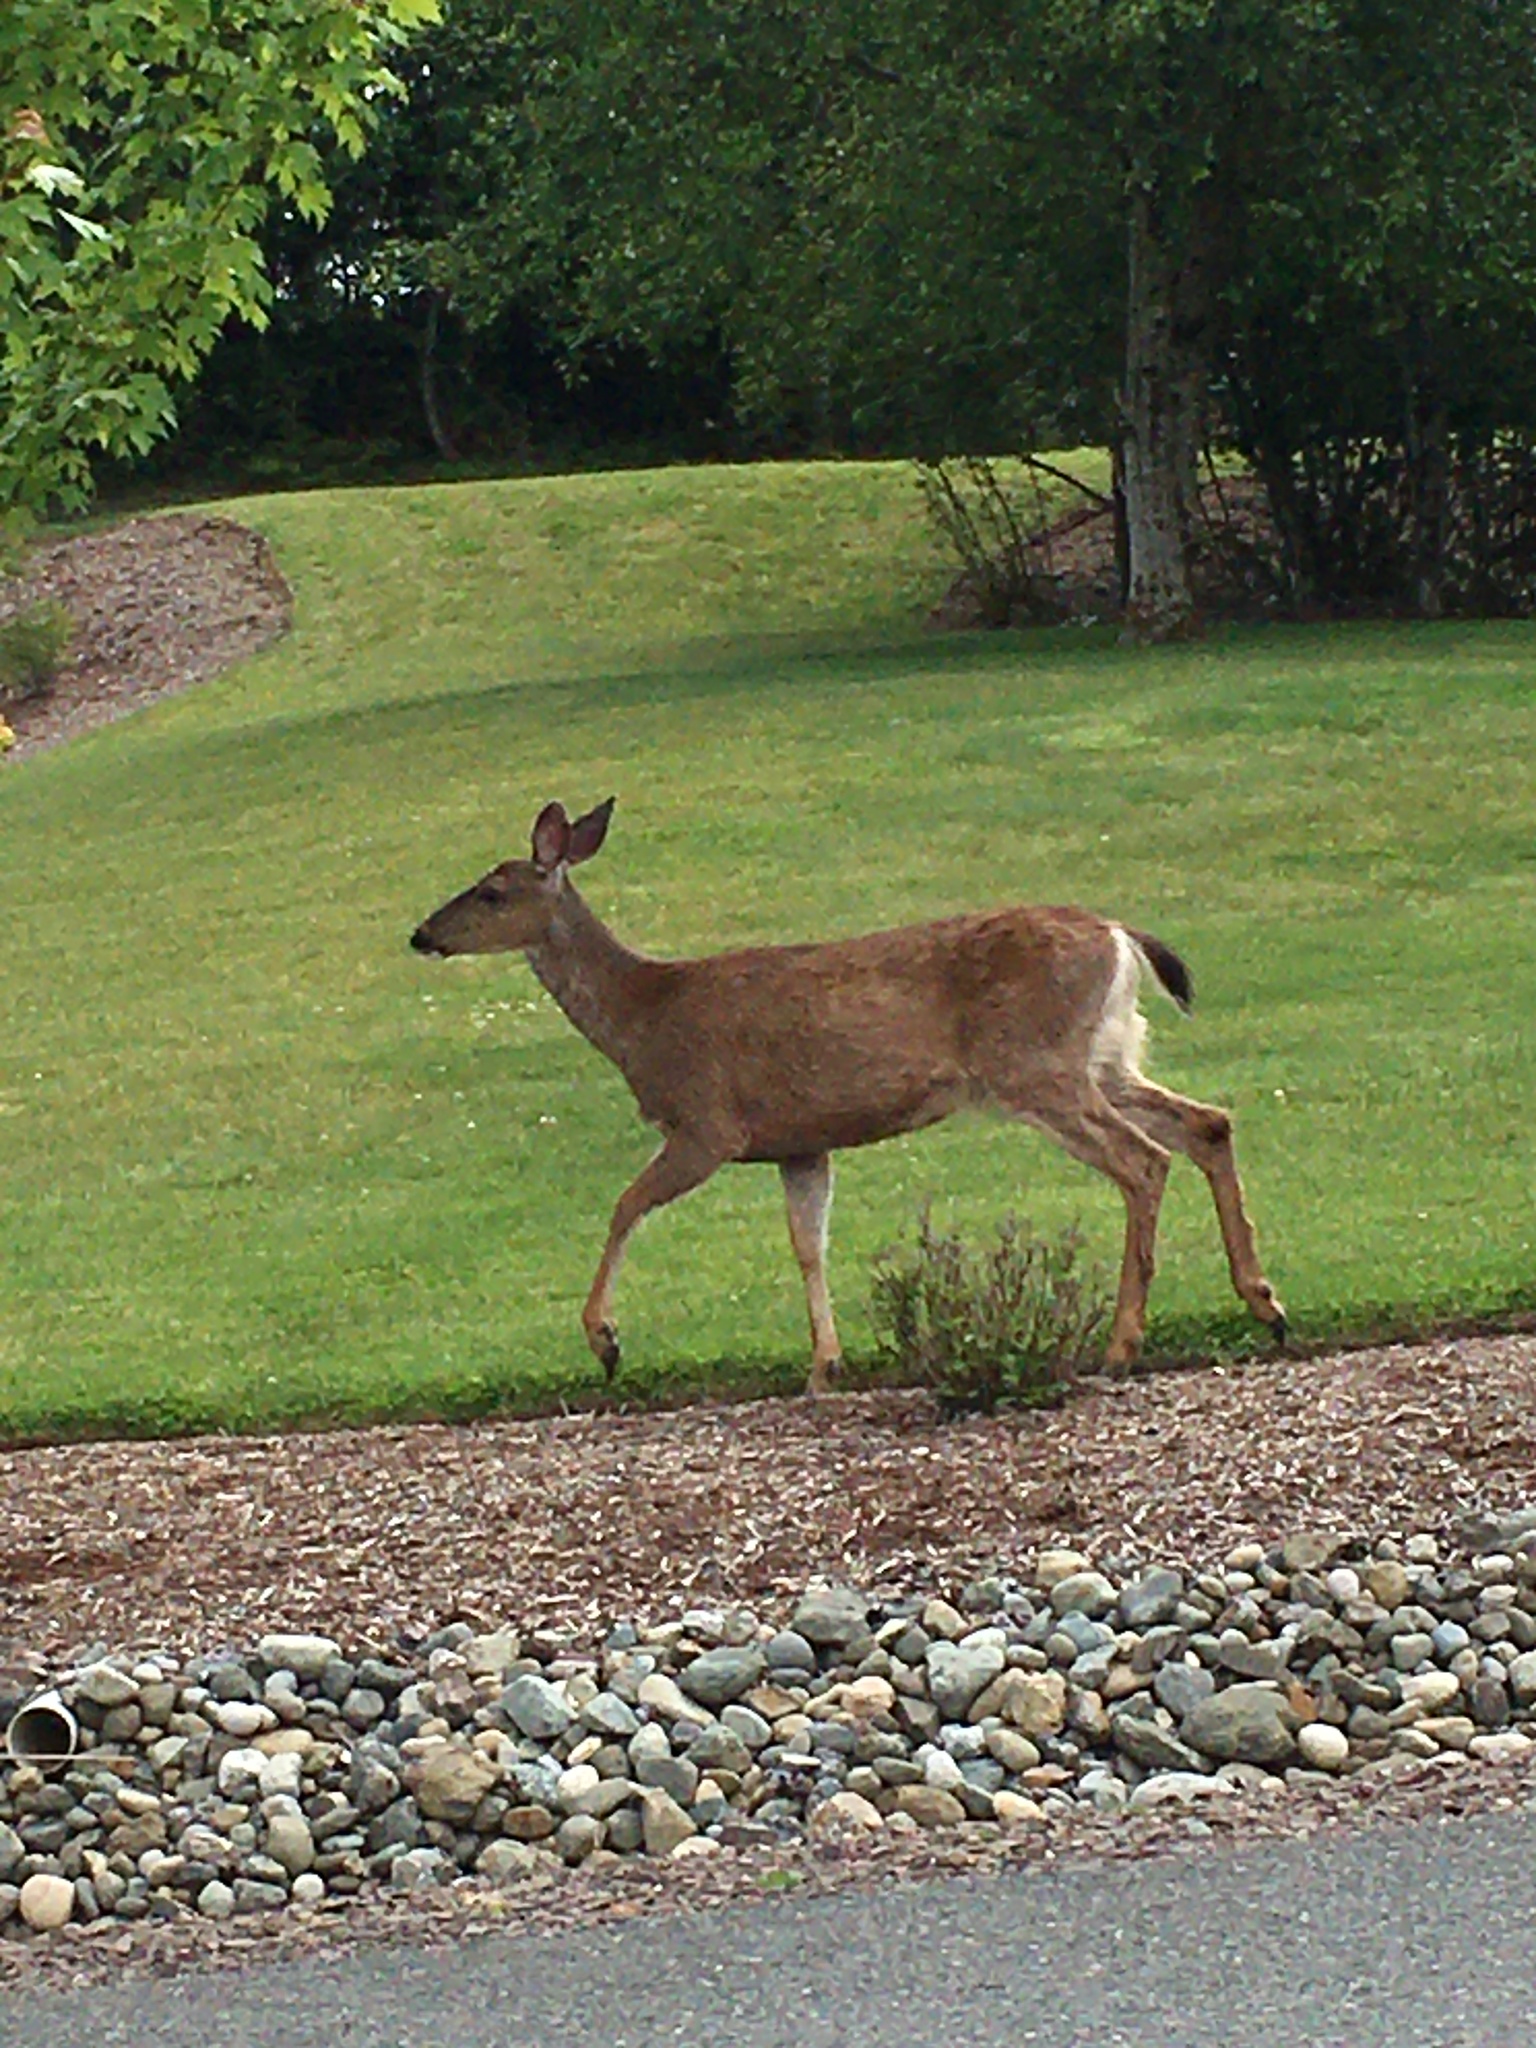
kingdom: Animalia
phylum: Chordata
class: Mammalia
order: Artiodactyla
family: Cervidae
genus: Odocoileus
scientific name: Odocoileus hemionus
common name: Mule deer
